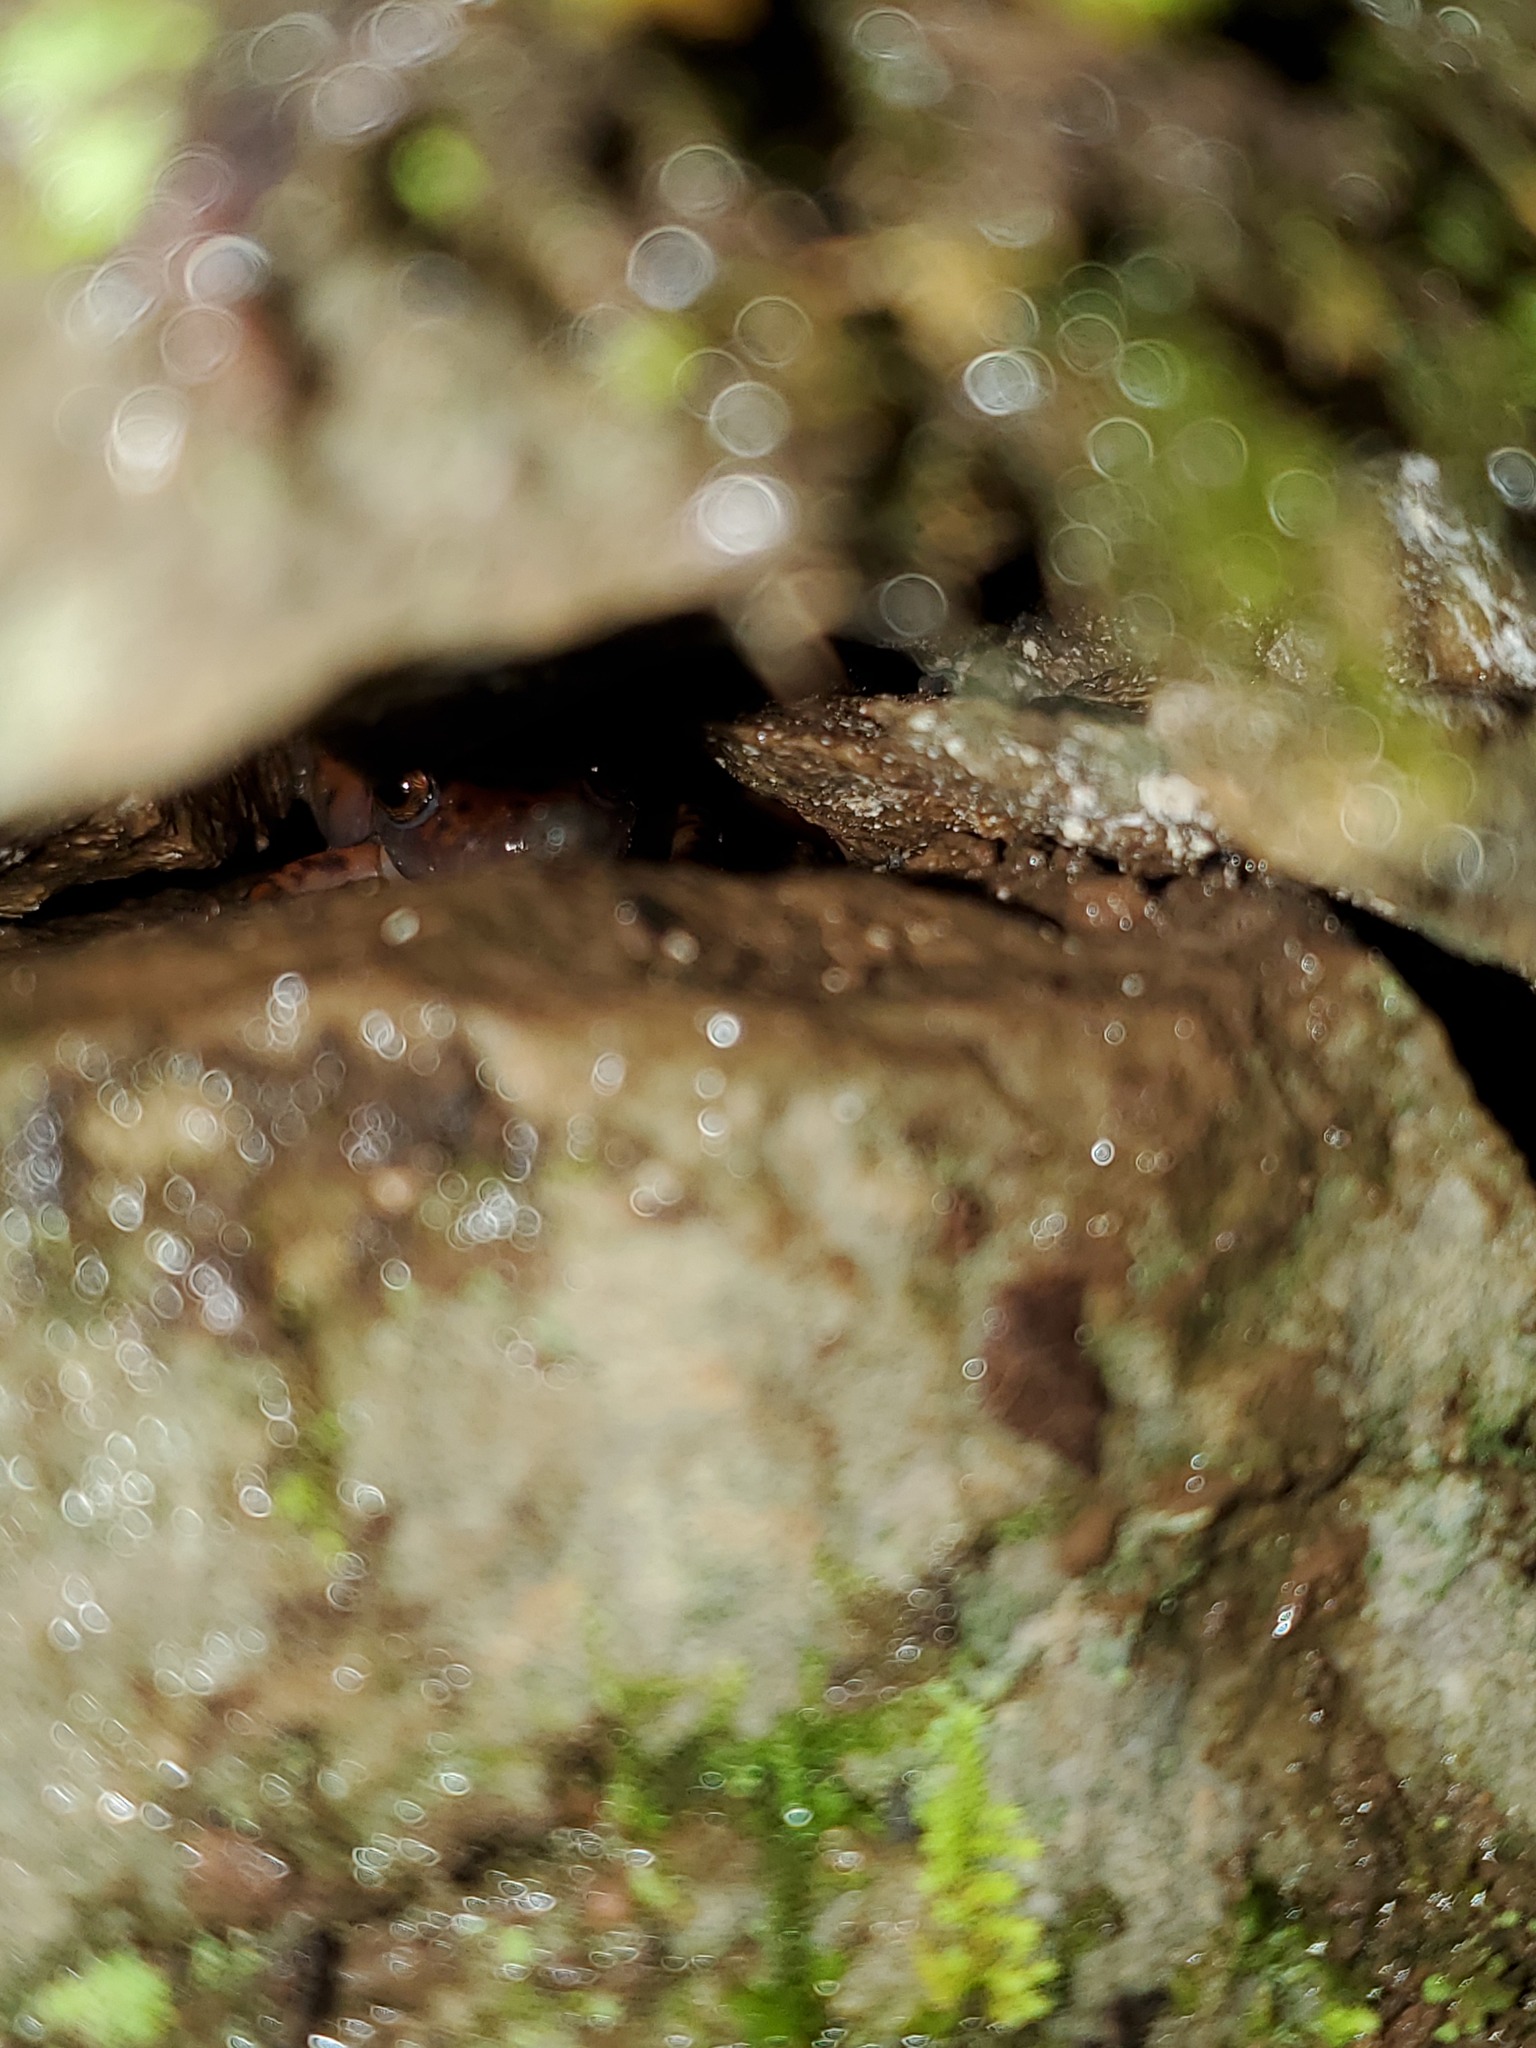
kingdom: Animalia
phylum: Chordata
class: Amphibia
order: Caudata
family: Plethodontidae
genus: Eurycea
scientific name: Eurycea lucifuga
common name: Cave salamander
